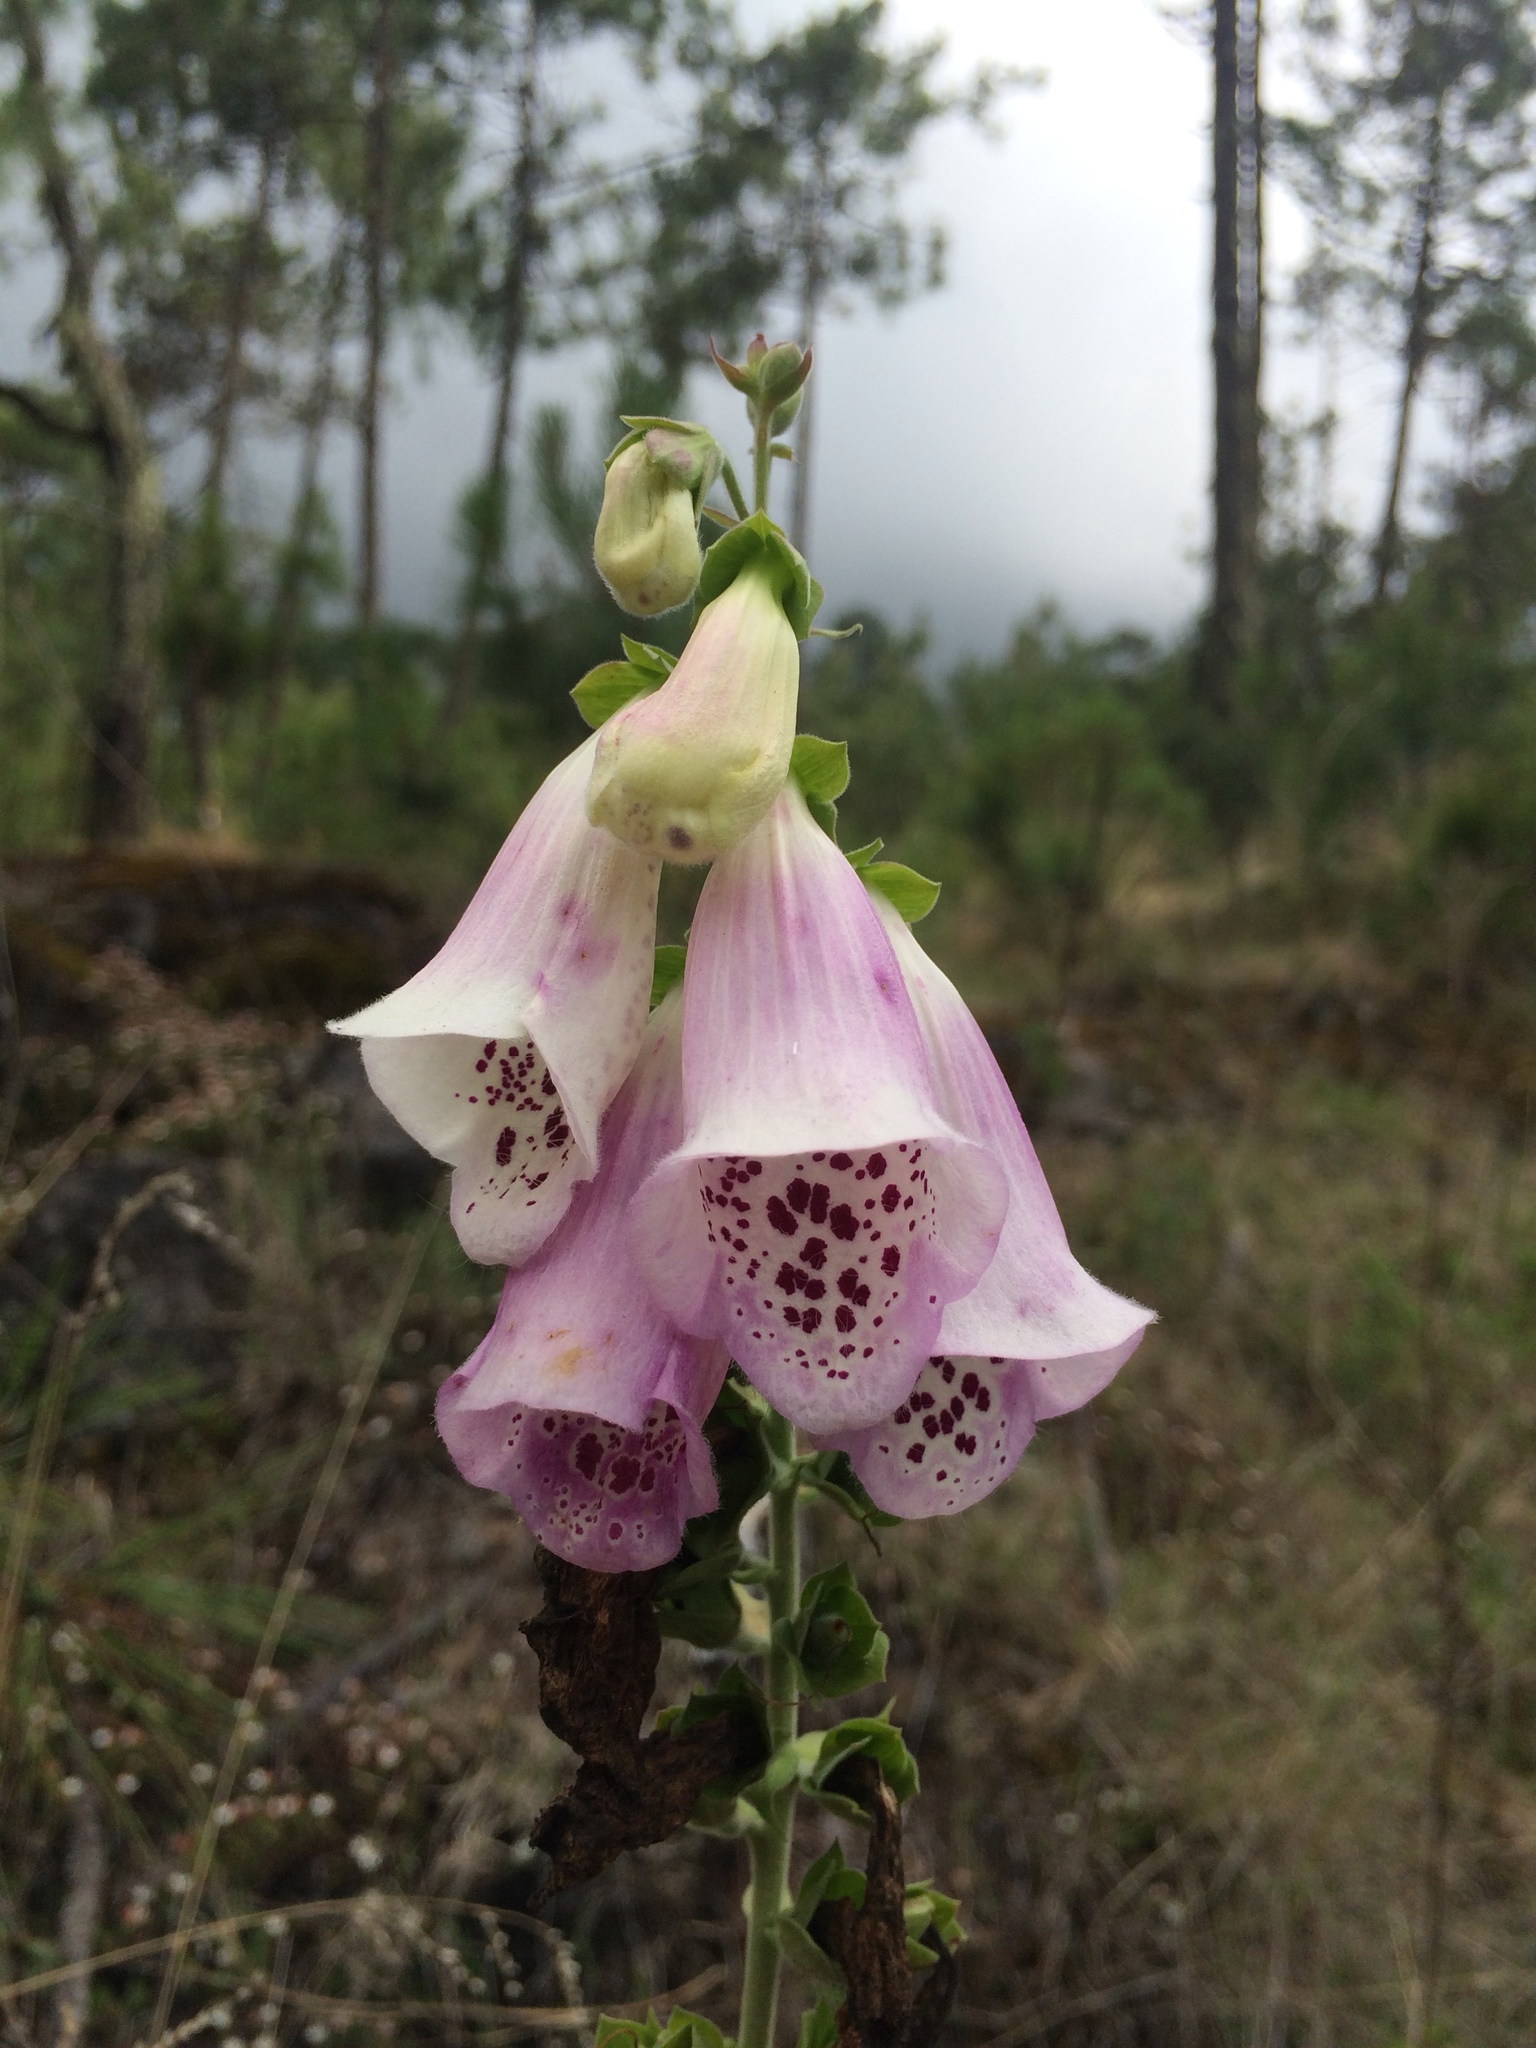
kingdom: Plantae
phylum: Tracheophyta
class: Magnoliopsida
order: Lamiales
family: Plantaginaceae
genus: Digitalis
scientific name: Digitalis purpurea
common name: Foxglove
